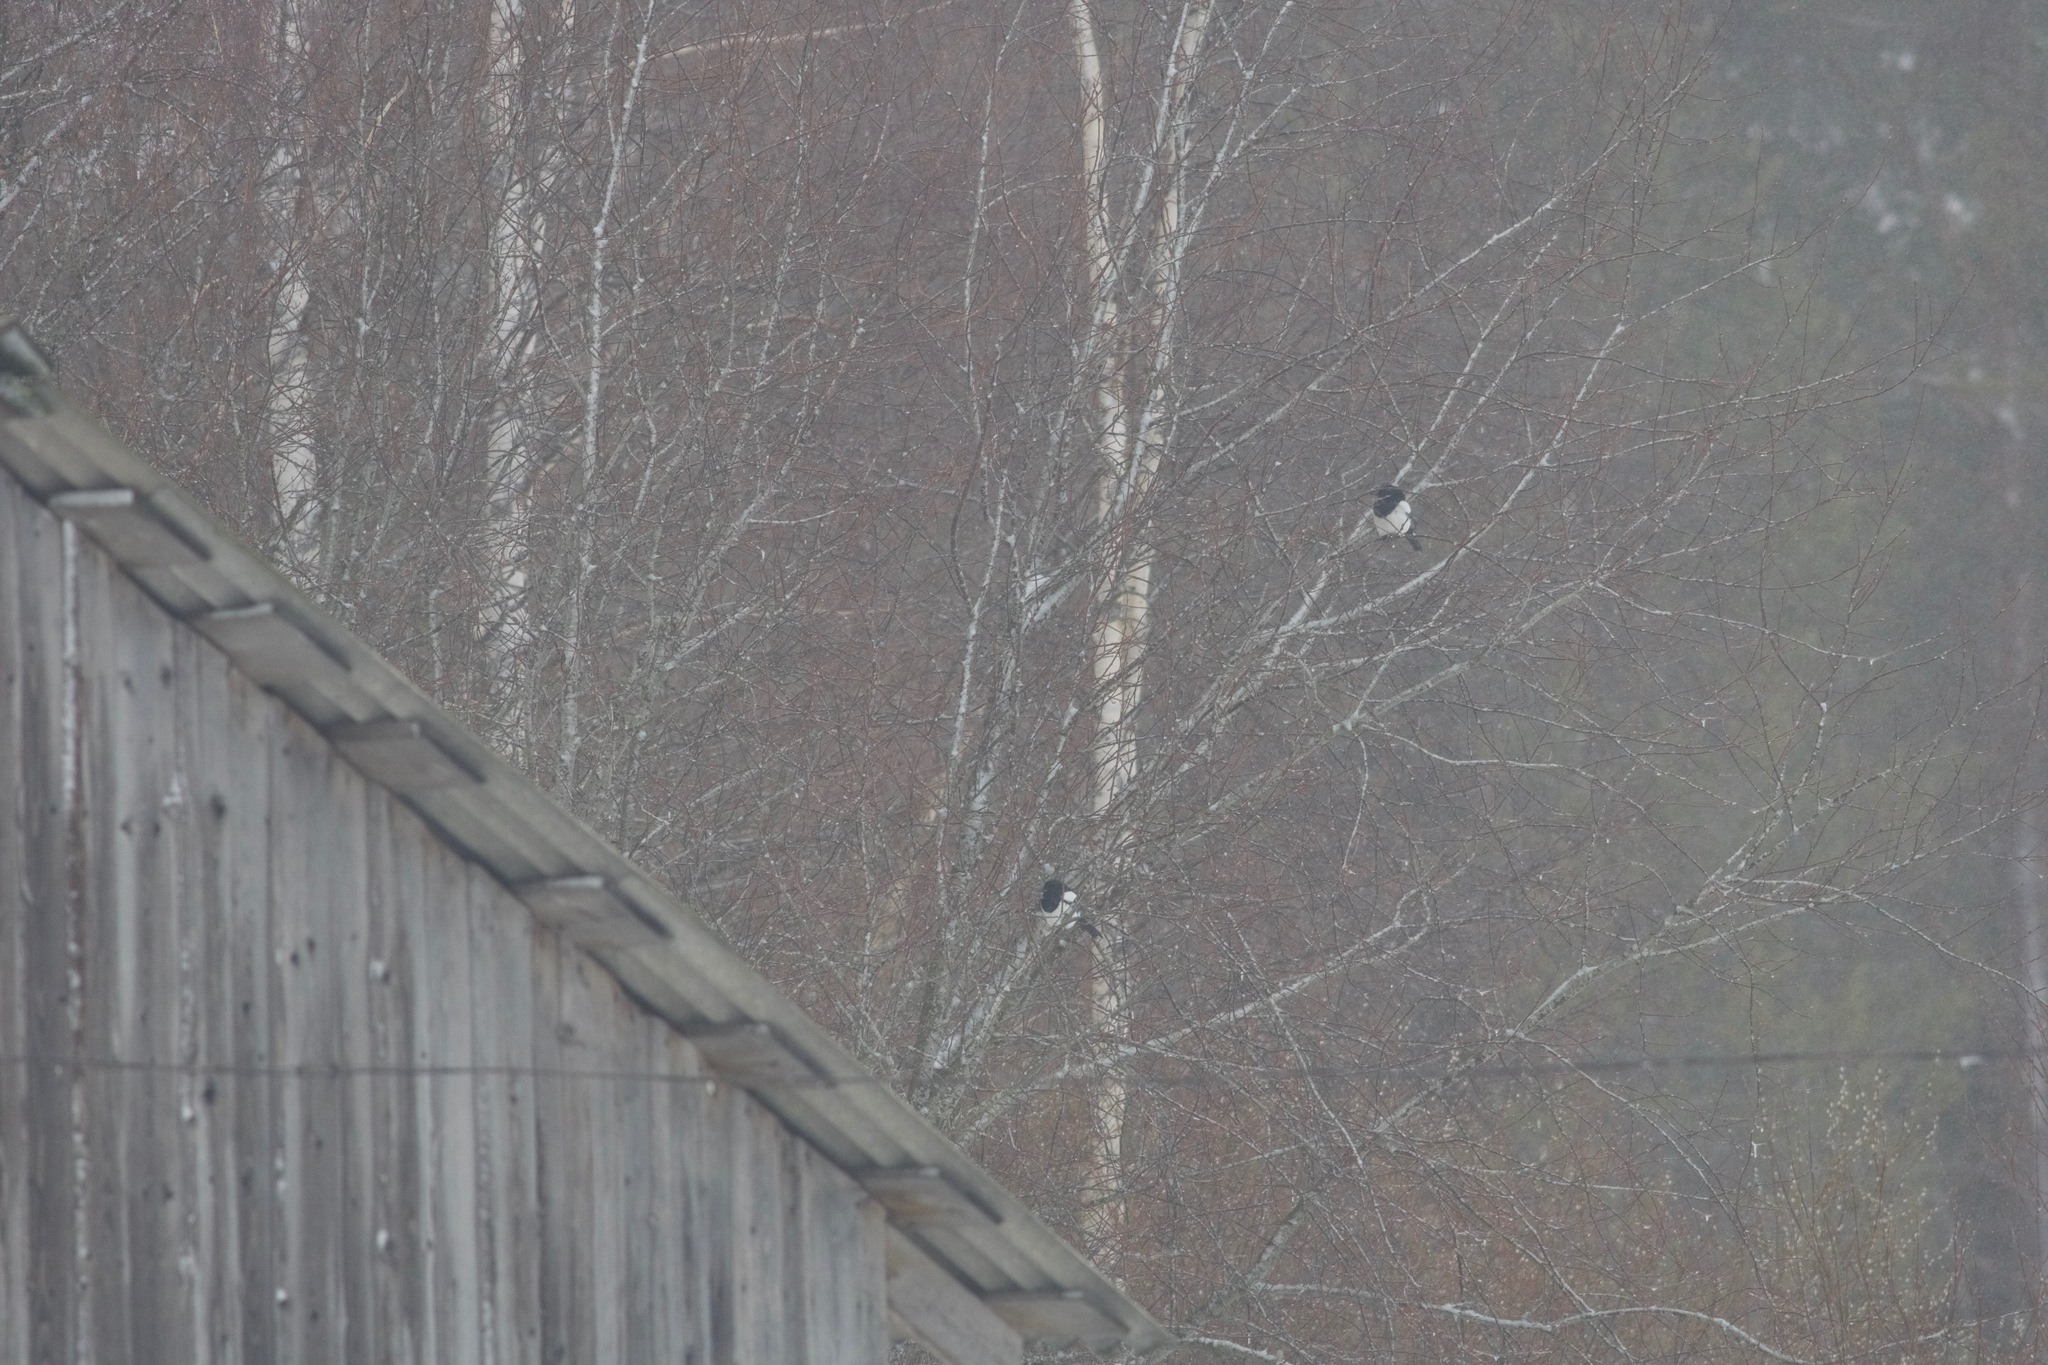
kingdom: Animalia
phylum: Chordata
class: Aves
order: Passeriformes
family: Corvidae
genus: Pica
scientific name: Pica pica
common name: Eurasian magpie
